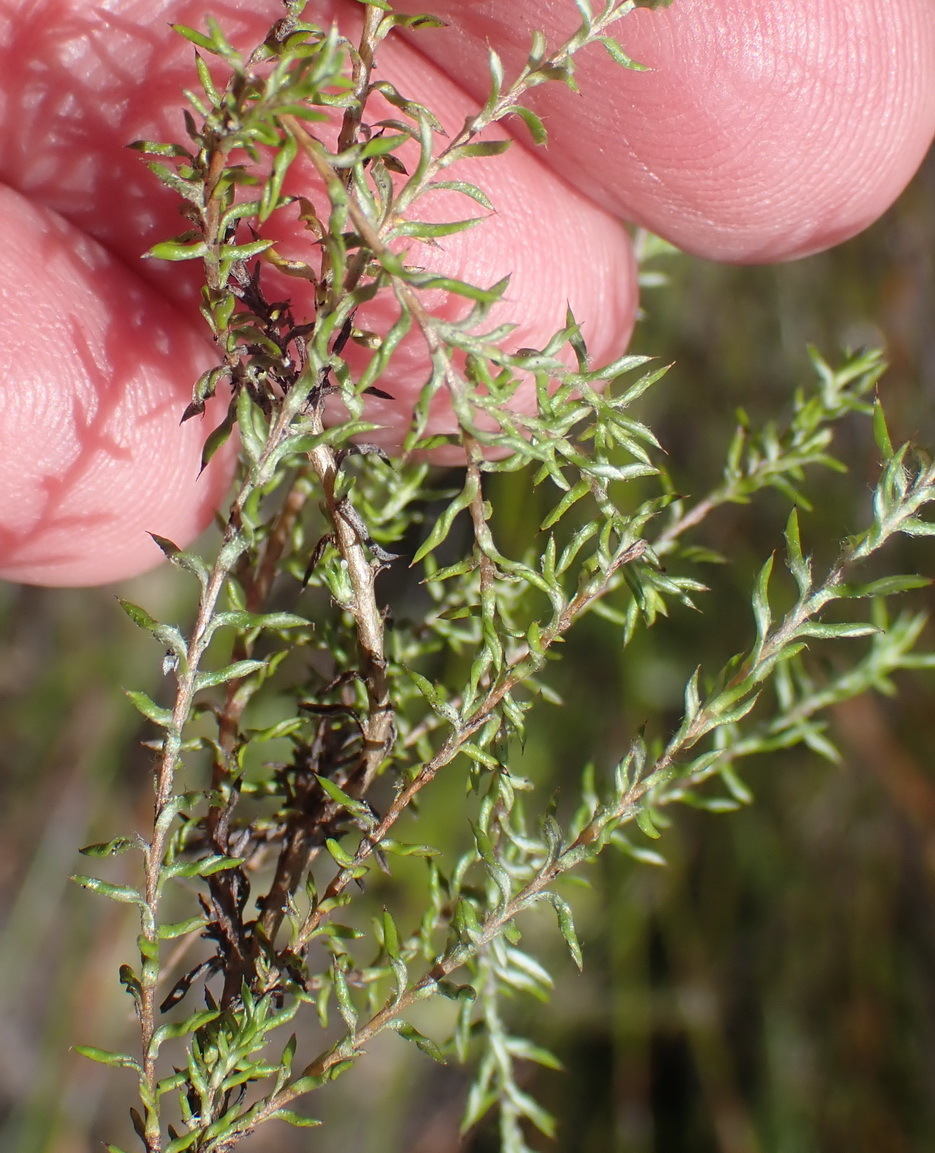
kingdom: Plantae
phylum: Tracheophyta
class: Magnoliopsida
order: Asterales
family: Asteraceae
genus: Disparago
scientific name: Disparago anomala
